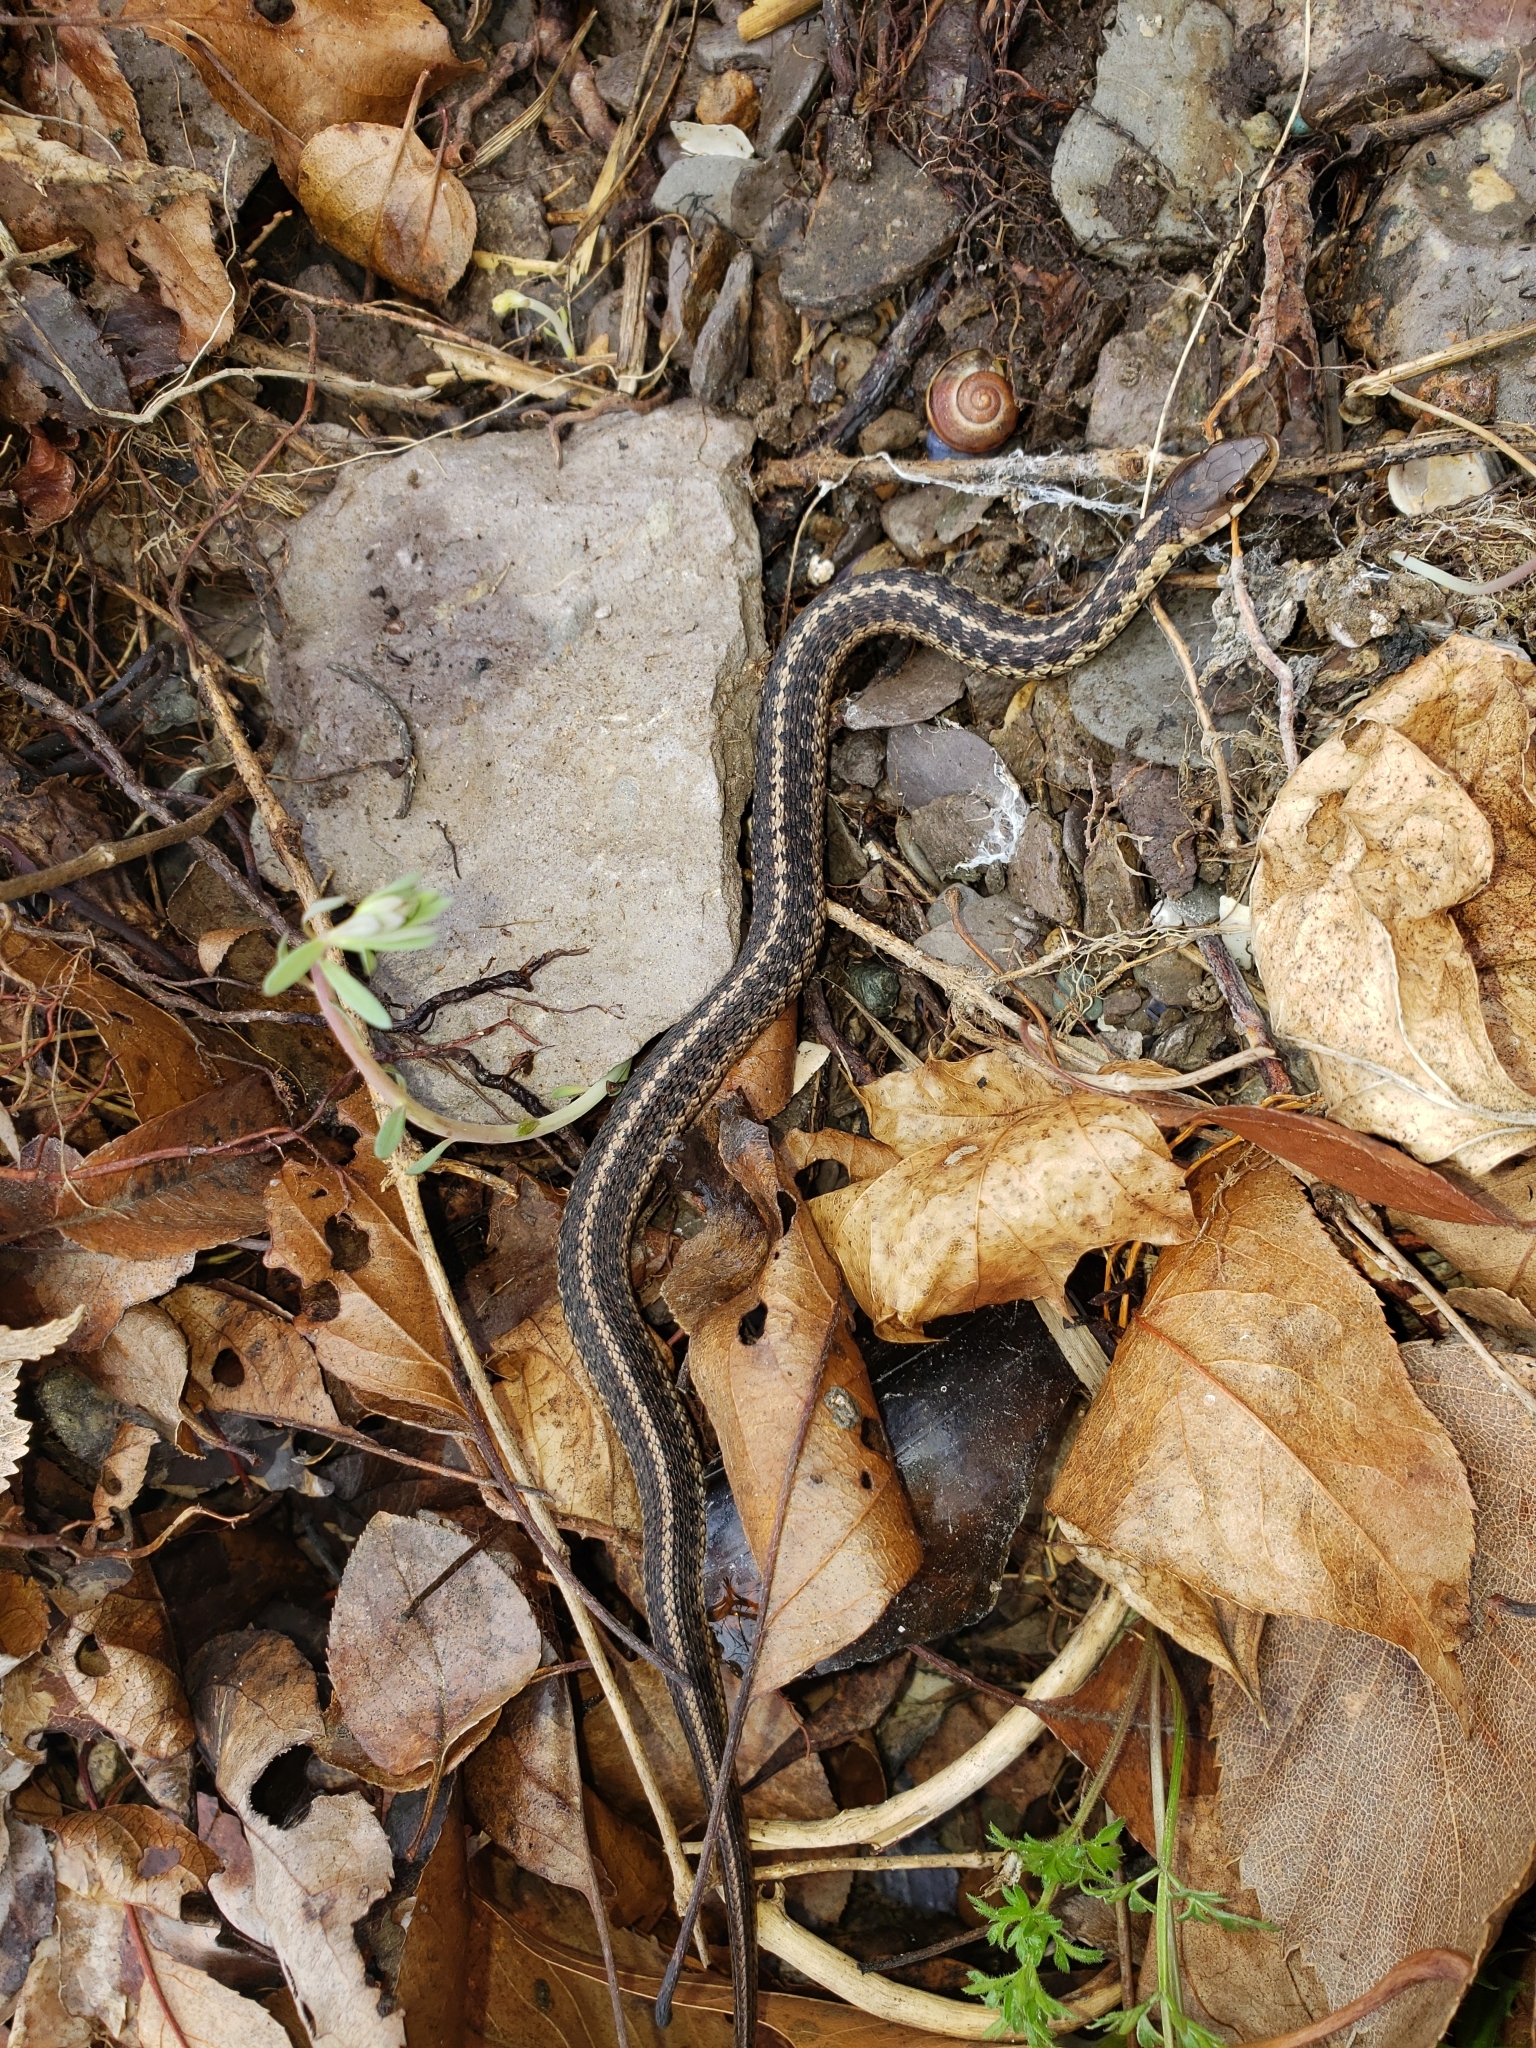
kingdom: Animalia
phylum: Chordata
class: Squamata
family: Colubridae
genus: Thamnophis
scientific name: Thamnophis sirtalis
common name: Common garter snake
